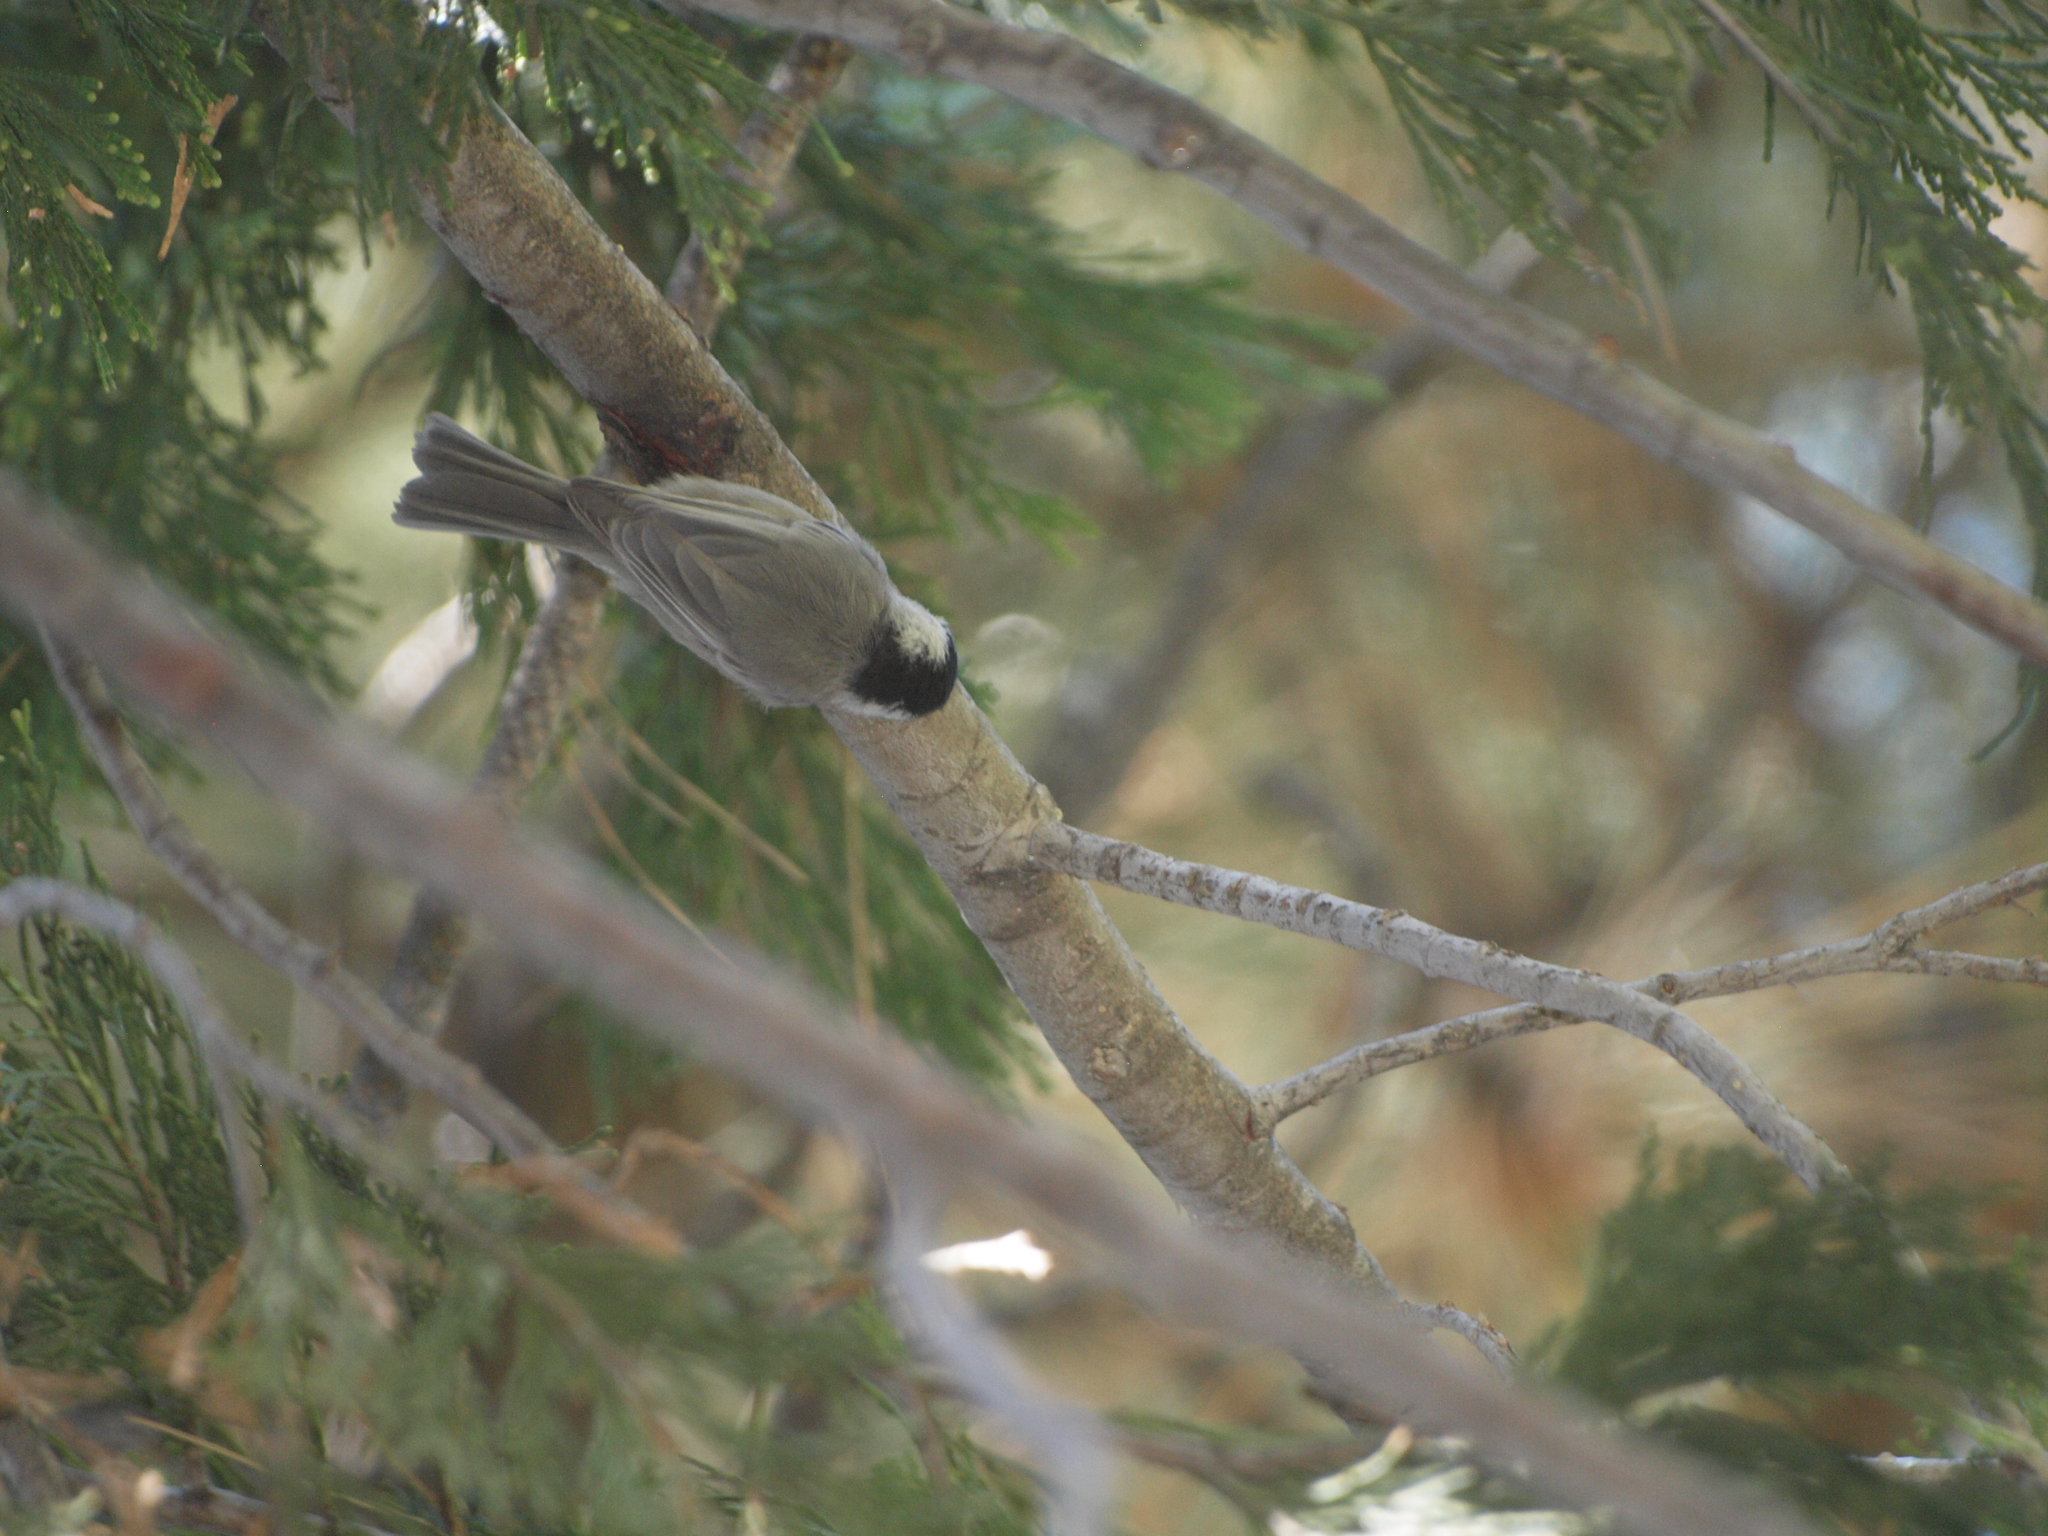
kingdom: Animalia
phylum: Chordata
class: Aves
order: Passeriformes
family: Paridae
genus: Poecile
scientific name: Poecile gambeli
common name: Mountain chickadee
